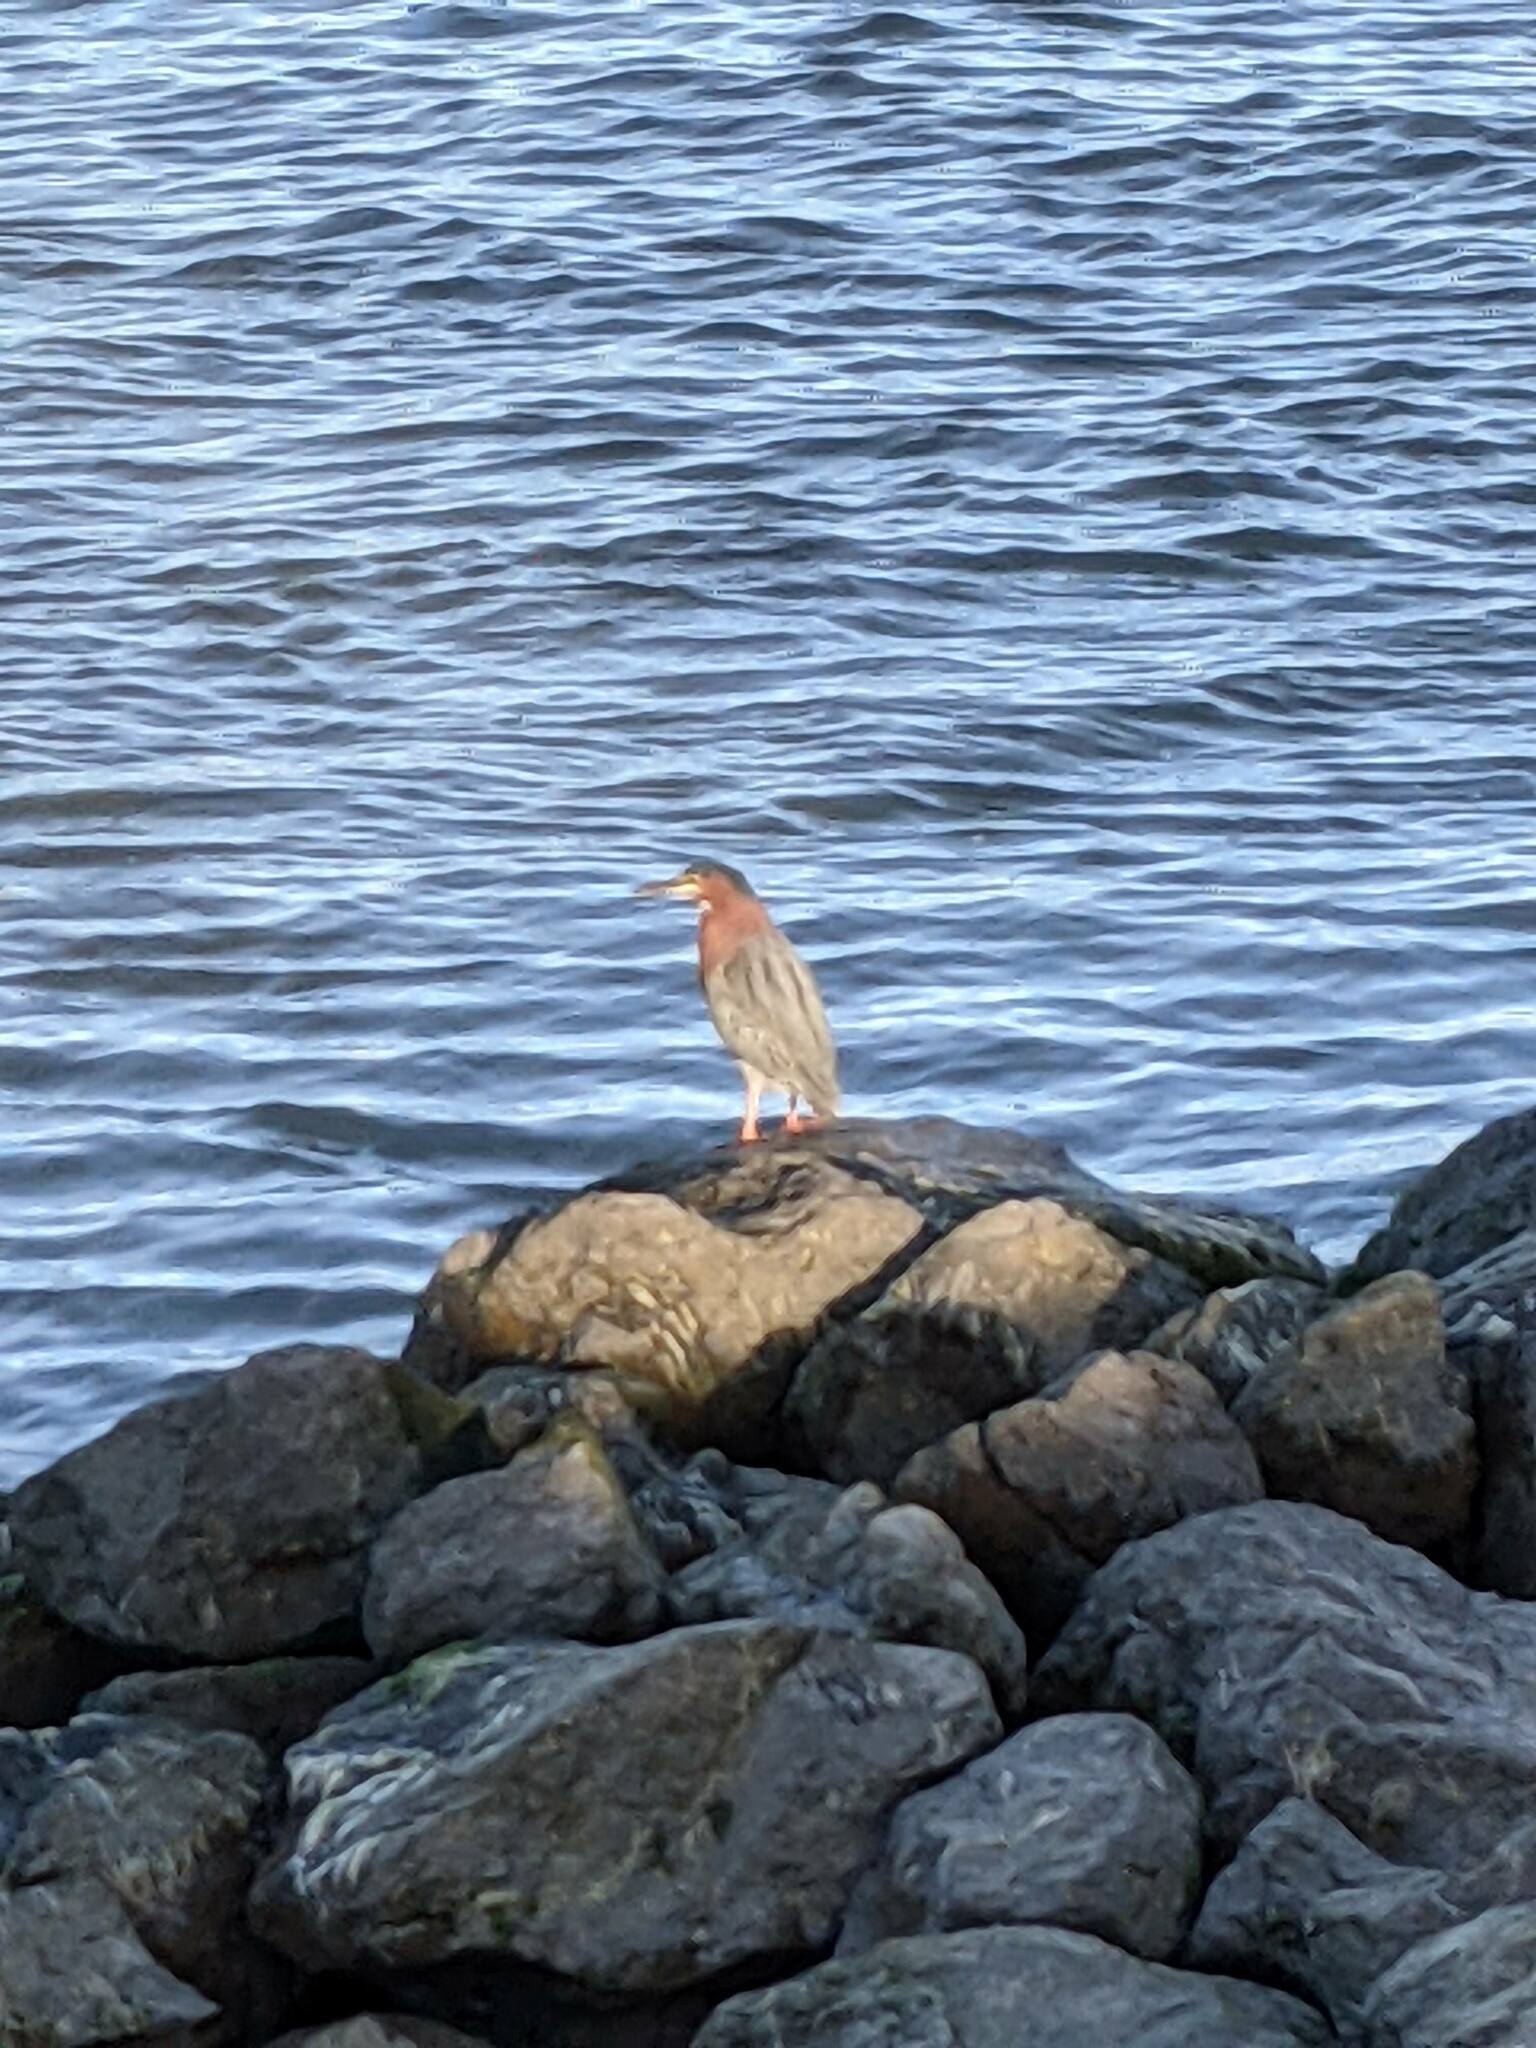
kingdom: Animalia
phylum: Chordata
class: Aves
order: Pelecaniformes
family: Ardeidae
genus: Butorides
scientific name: Butorides virescens
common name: Green heron
